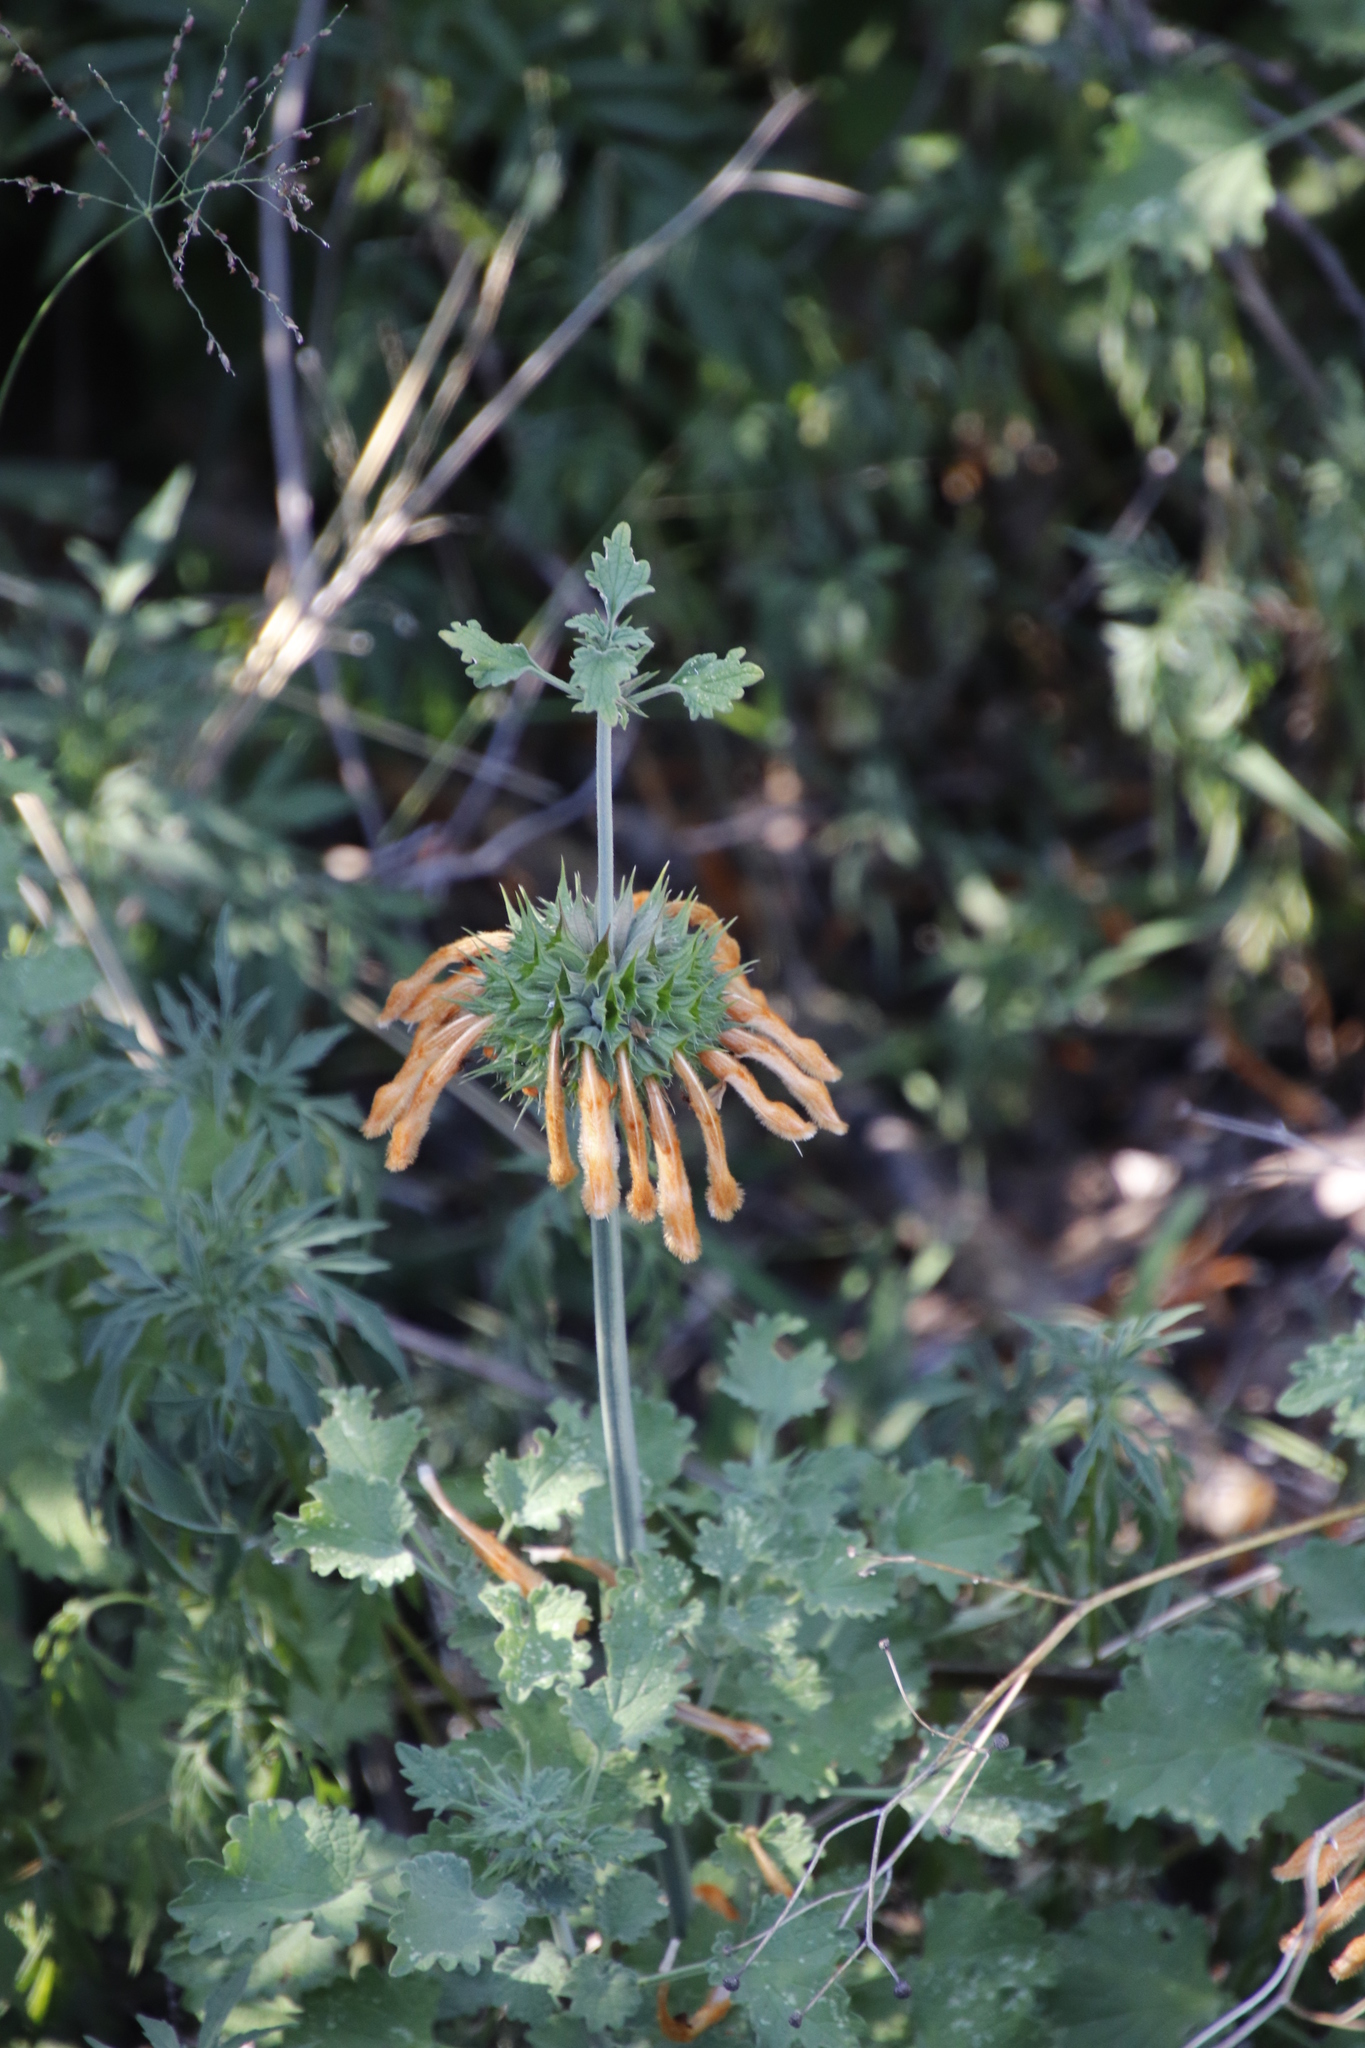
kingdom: Plantae
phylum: Tracheophyta
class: Magnoliopsida
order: Lamiales
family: Lamiaceae
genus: Leonotis
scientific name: Leonotis ocymifolia
